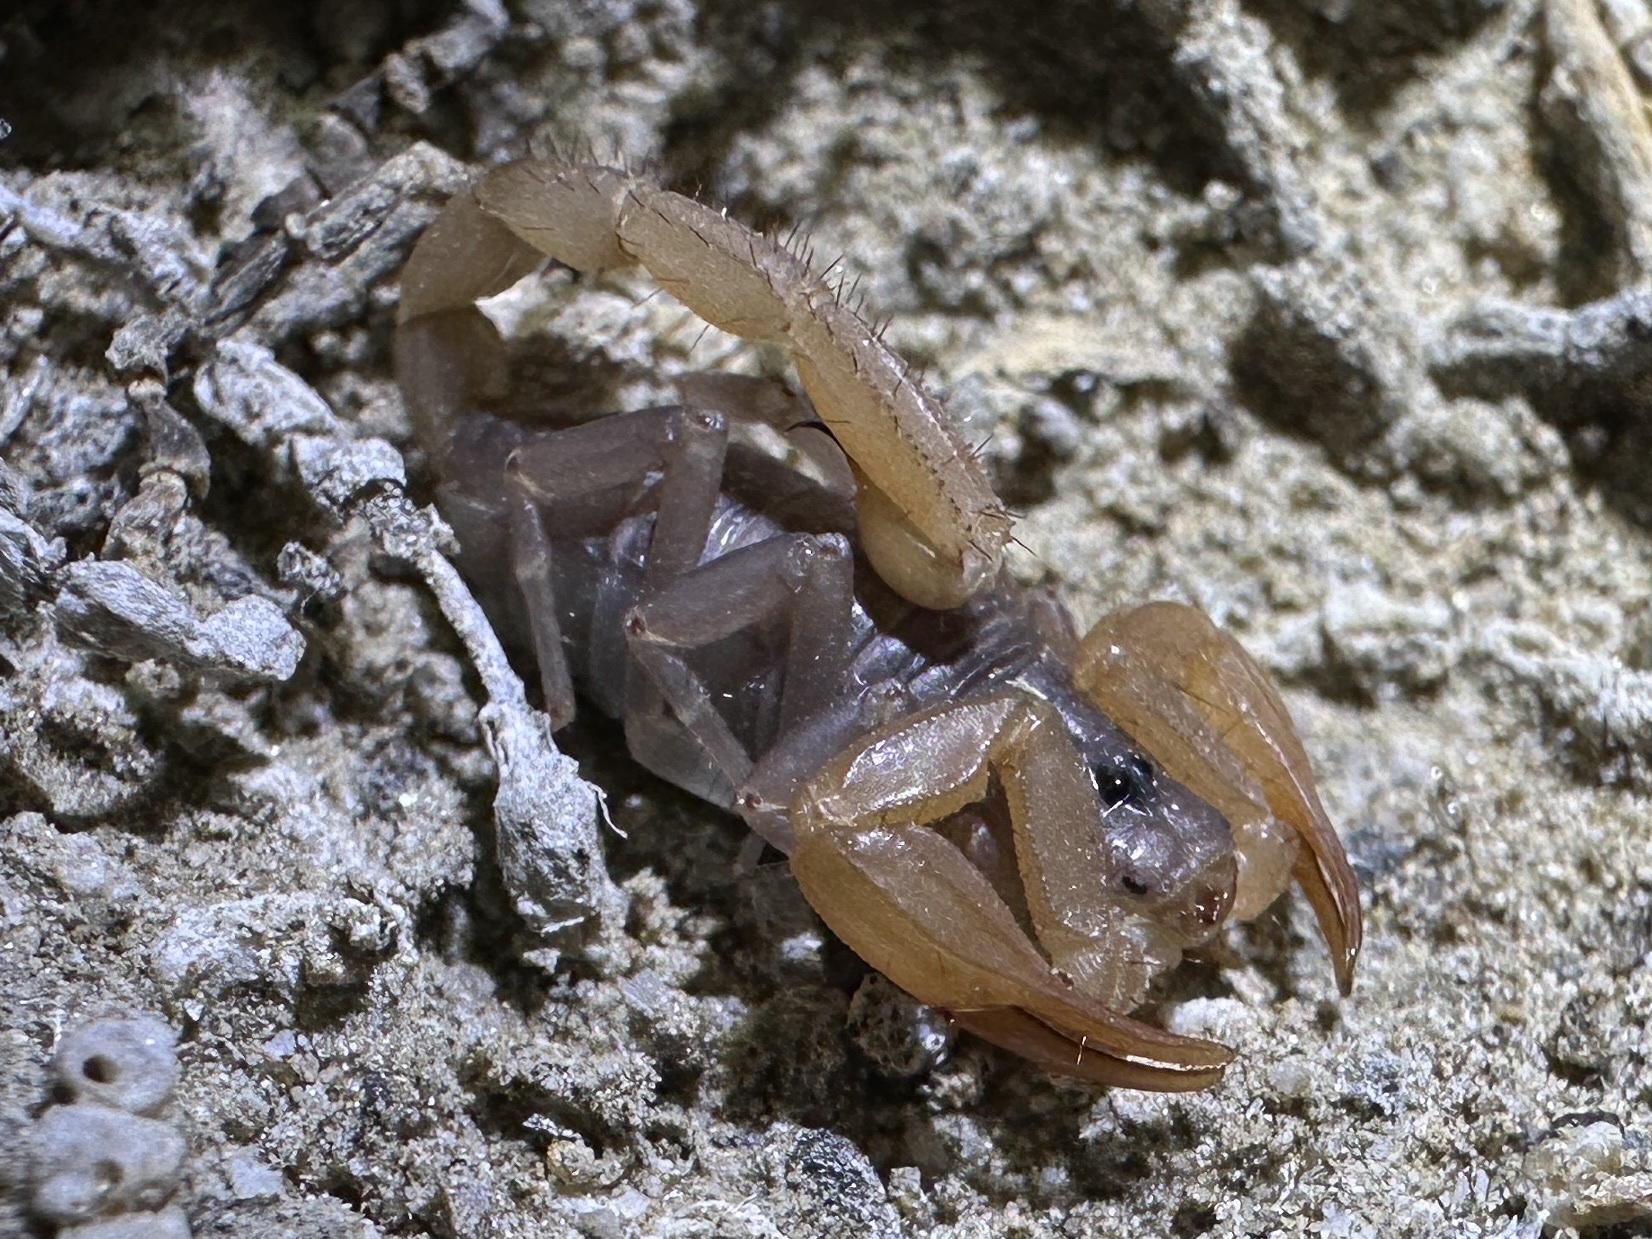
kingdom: Animalia
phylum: Arthropoda
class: Arachnida
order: Scorpiones
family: Vaejovidae
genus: Smeringurus
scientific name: Smeringurus vachoni
